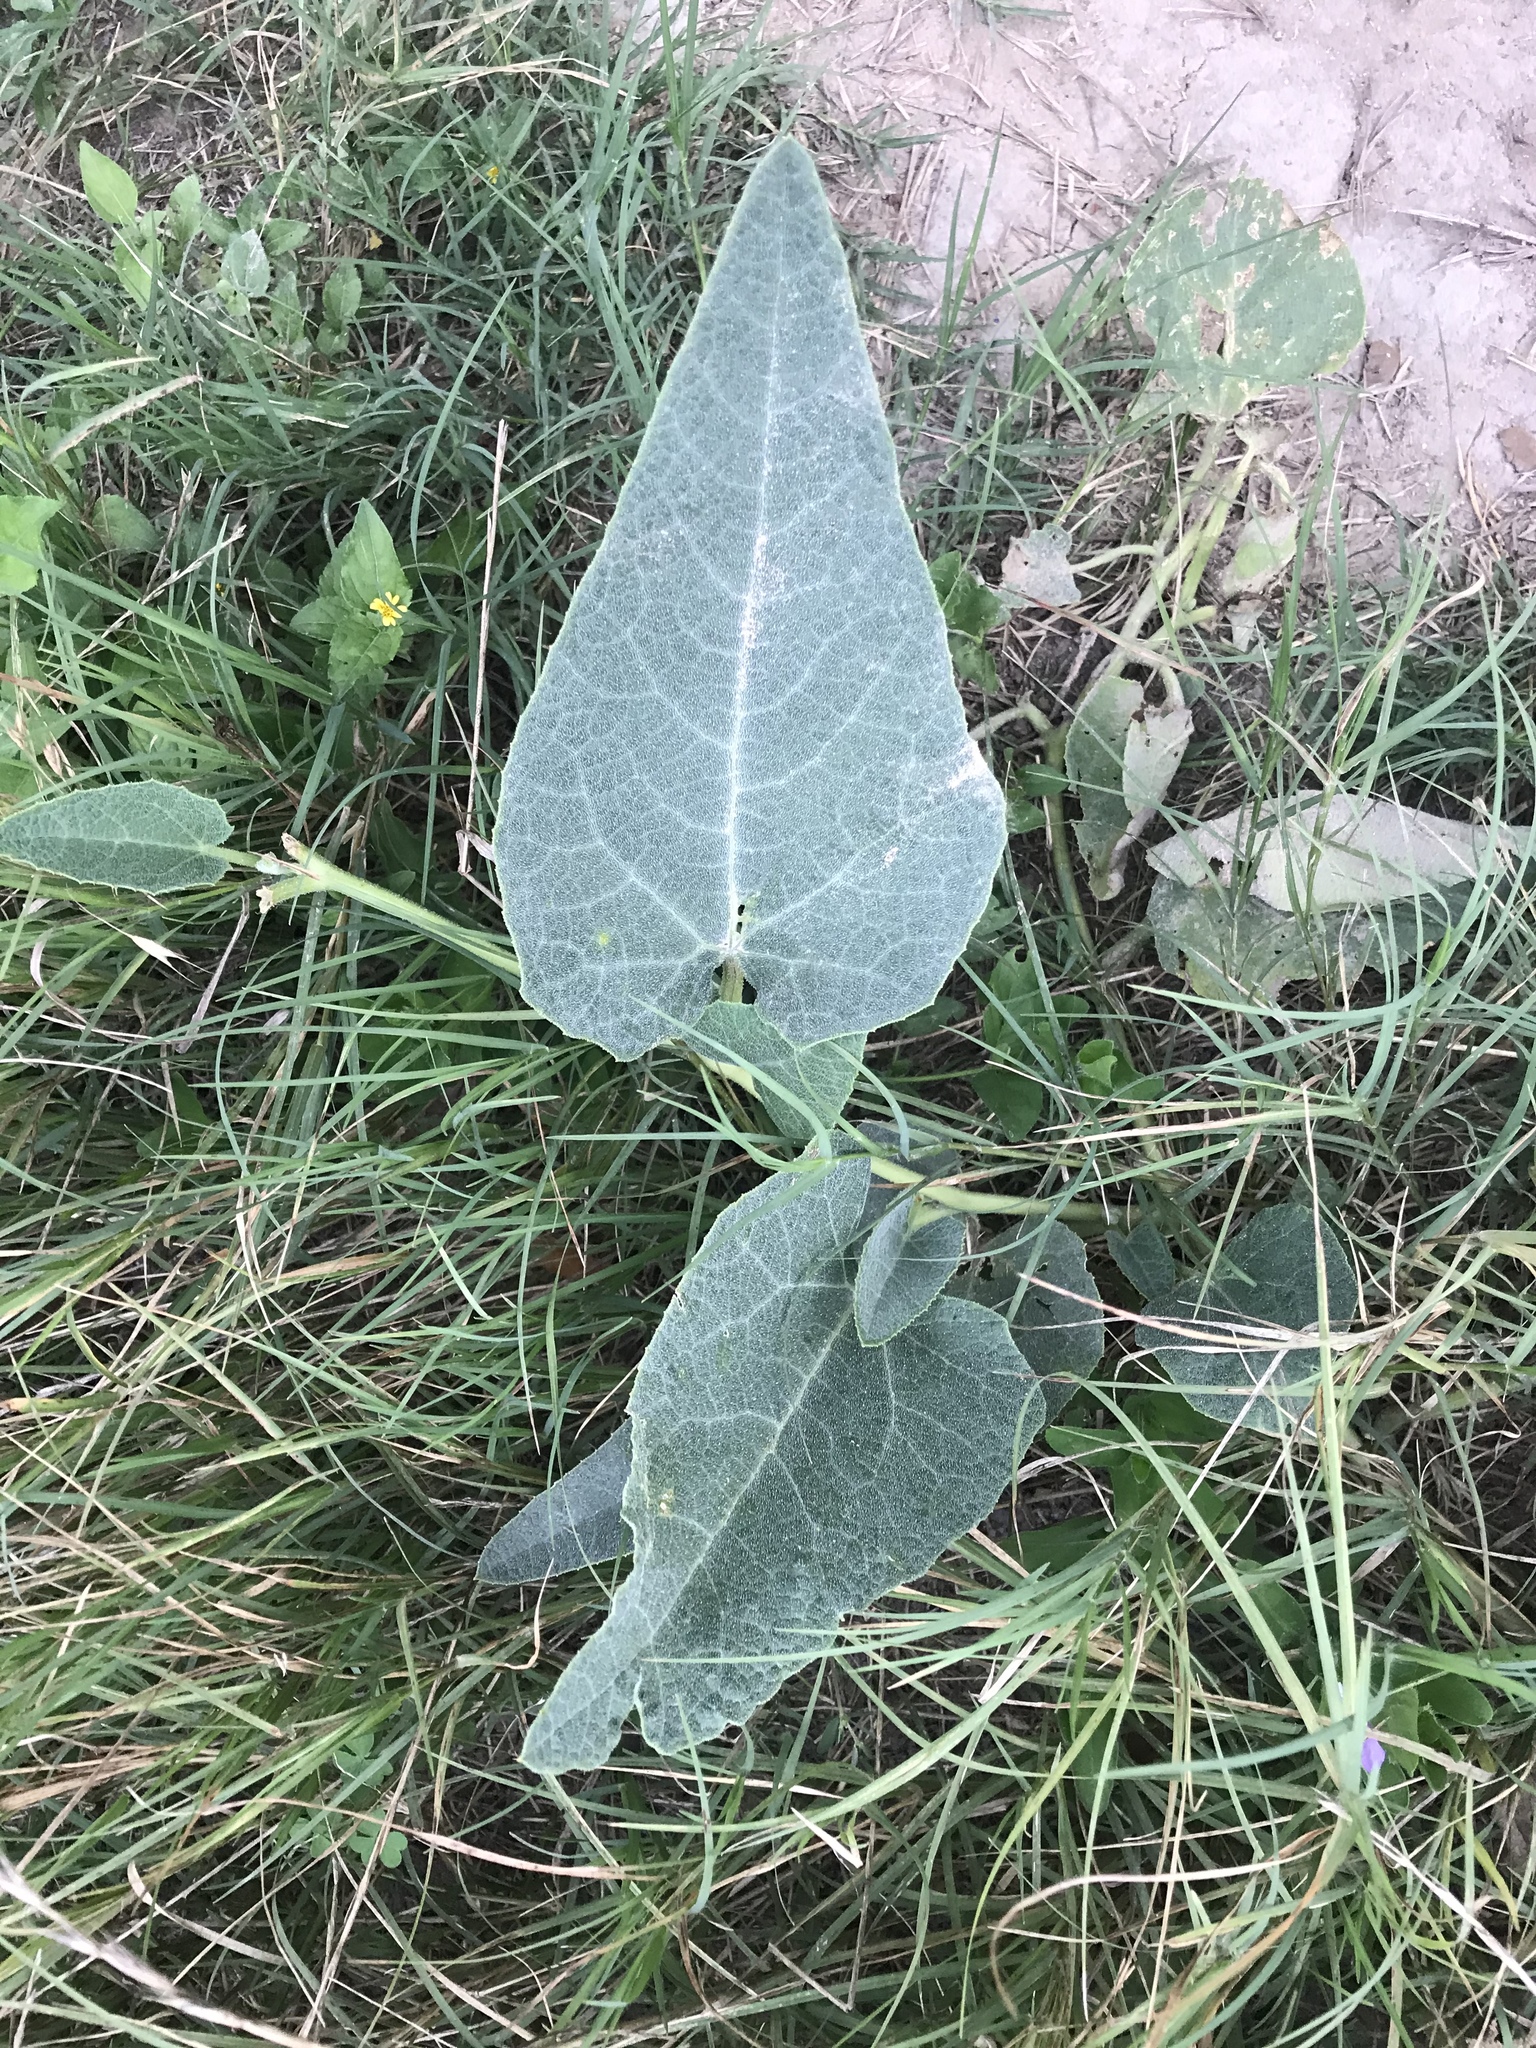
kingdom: Plantae
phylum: Tracheophyta
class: Magnoliopsida
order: Cucurbitales
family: Cucurbitaceae
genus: Cucurbita
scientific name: Cucurbita foetidissima
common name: Buffalo gourd
